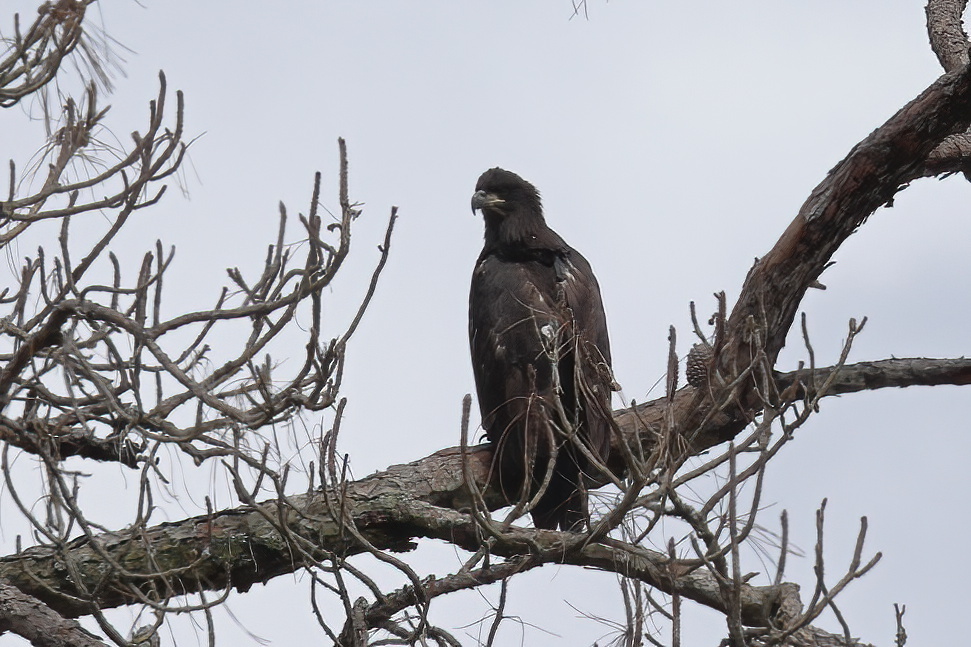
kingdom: Animalia
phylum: Chordata
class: Aves
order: Accipitriformes
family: Accipitridae
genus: Haliaeetus
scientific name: Haliaeetus leucocephalus
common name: Bald eagle
